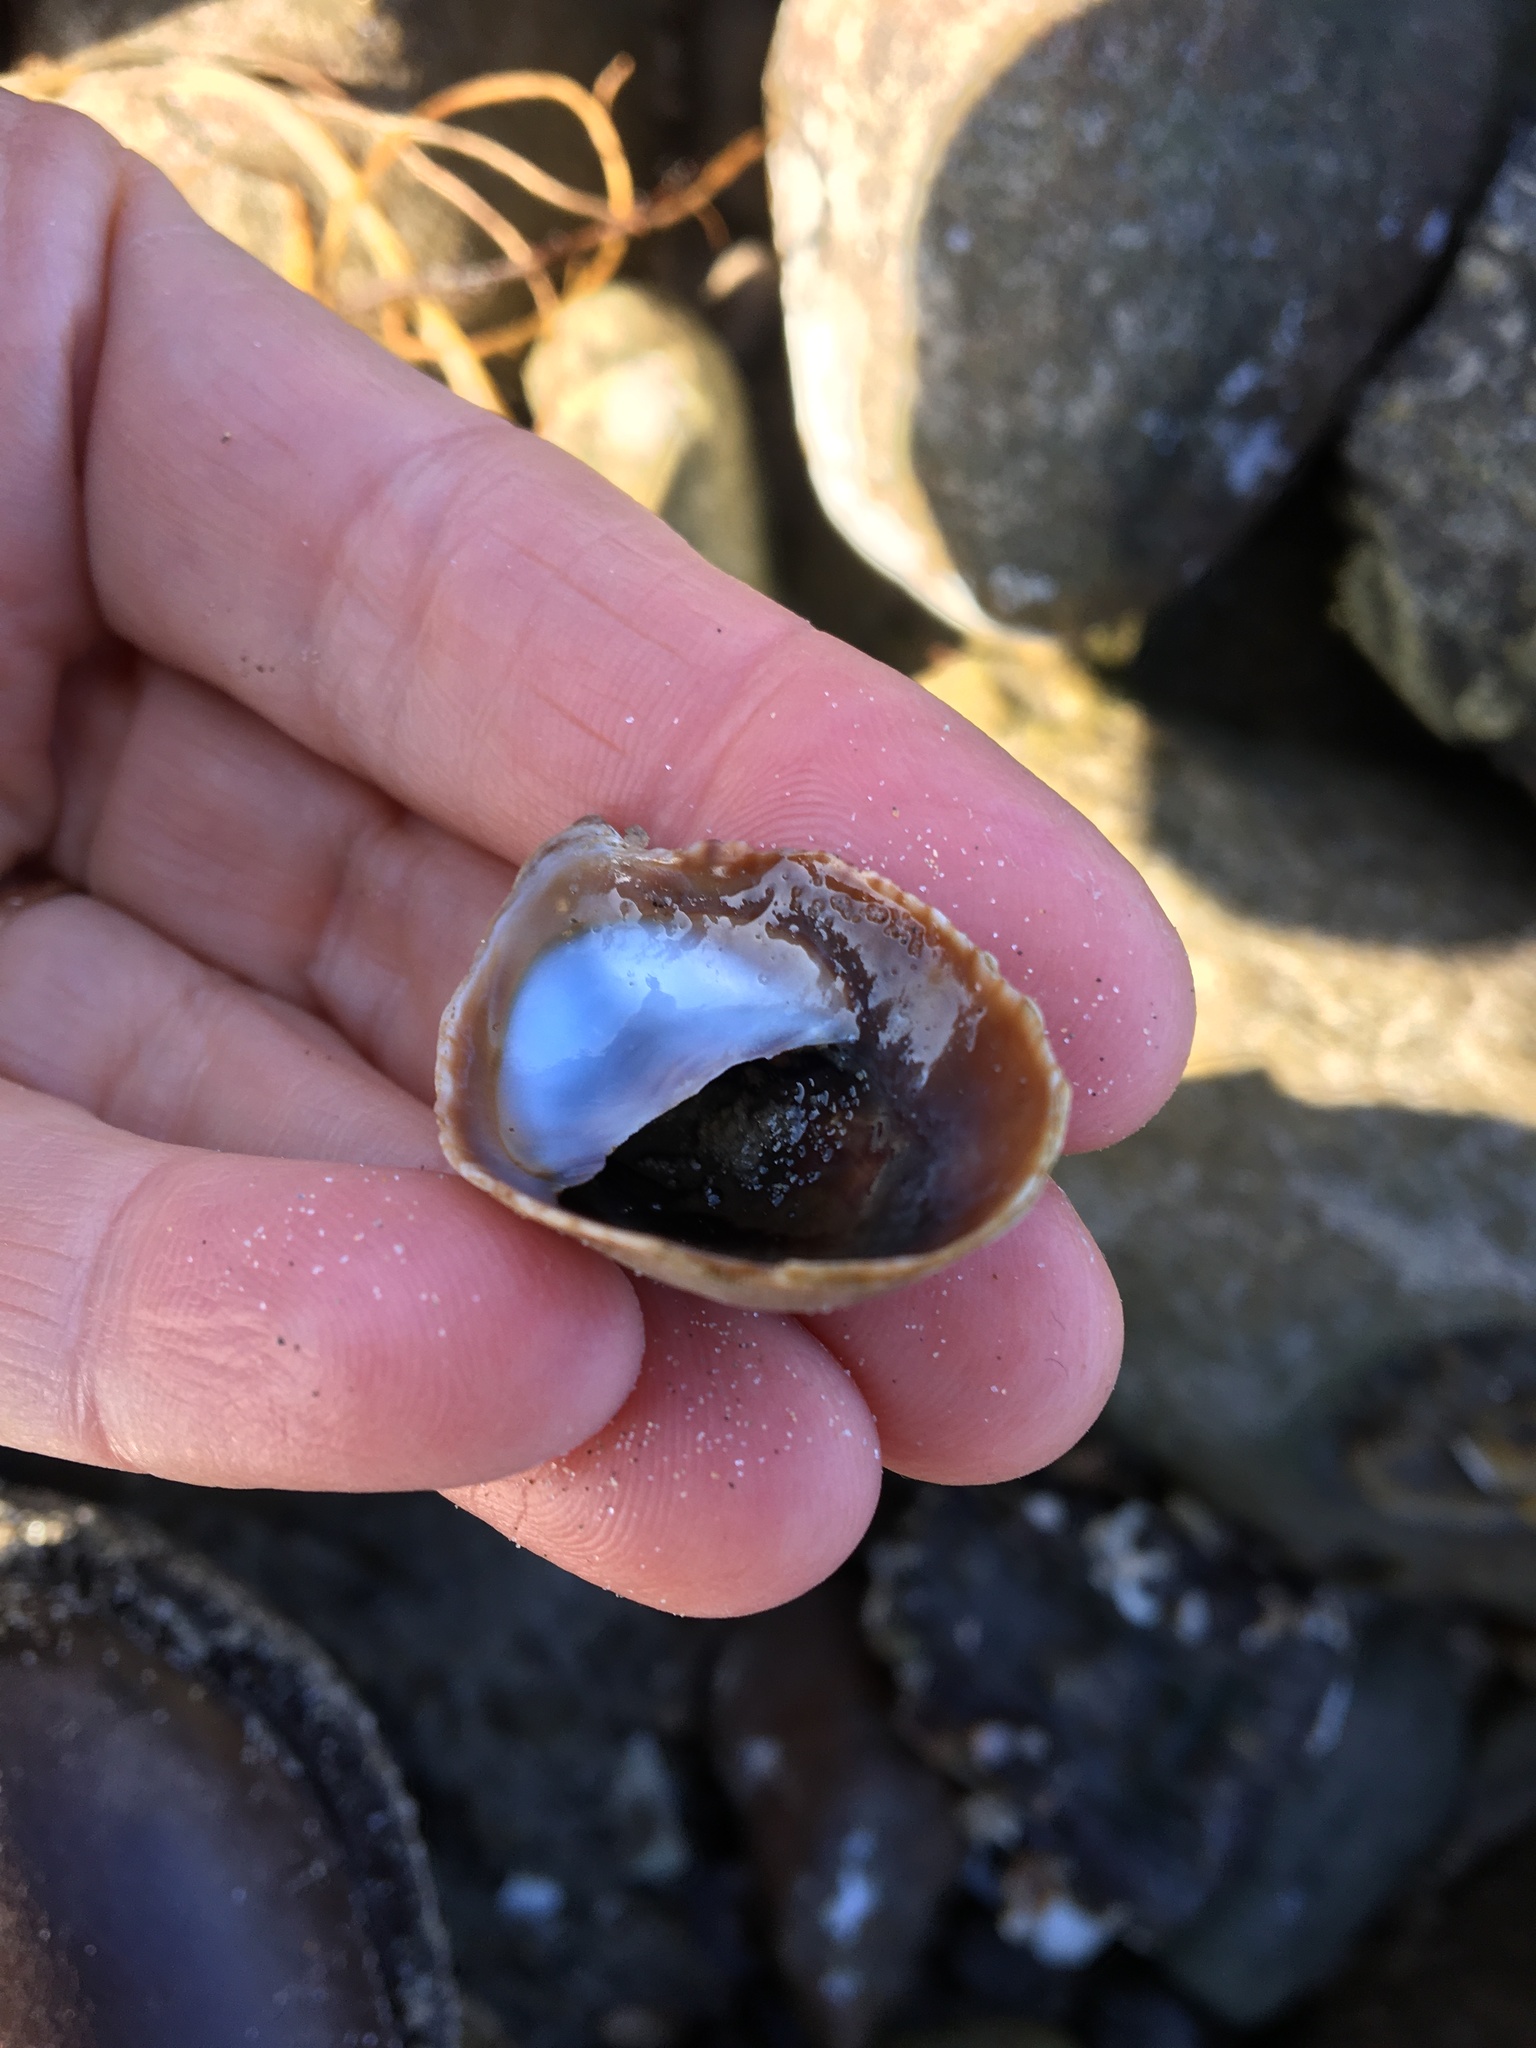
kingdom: Animalia
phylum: Mollusca
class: Gastropoda
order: Littorinimorpha
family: Calyptraeidae
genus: Crepidula
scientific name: Crepidula onyx
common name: Onyx slippersnail
